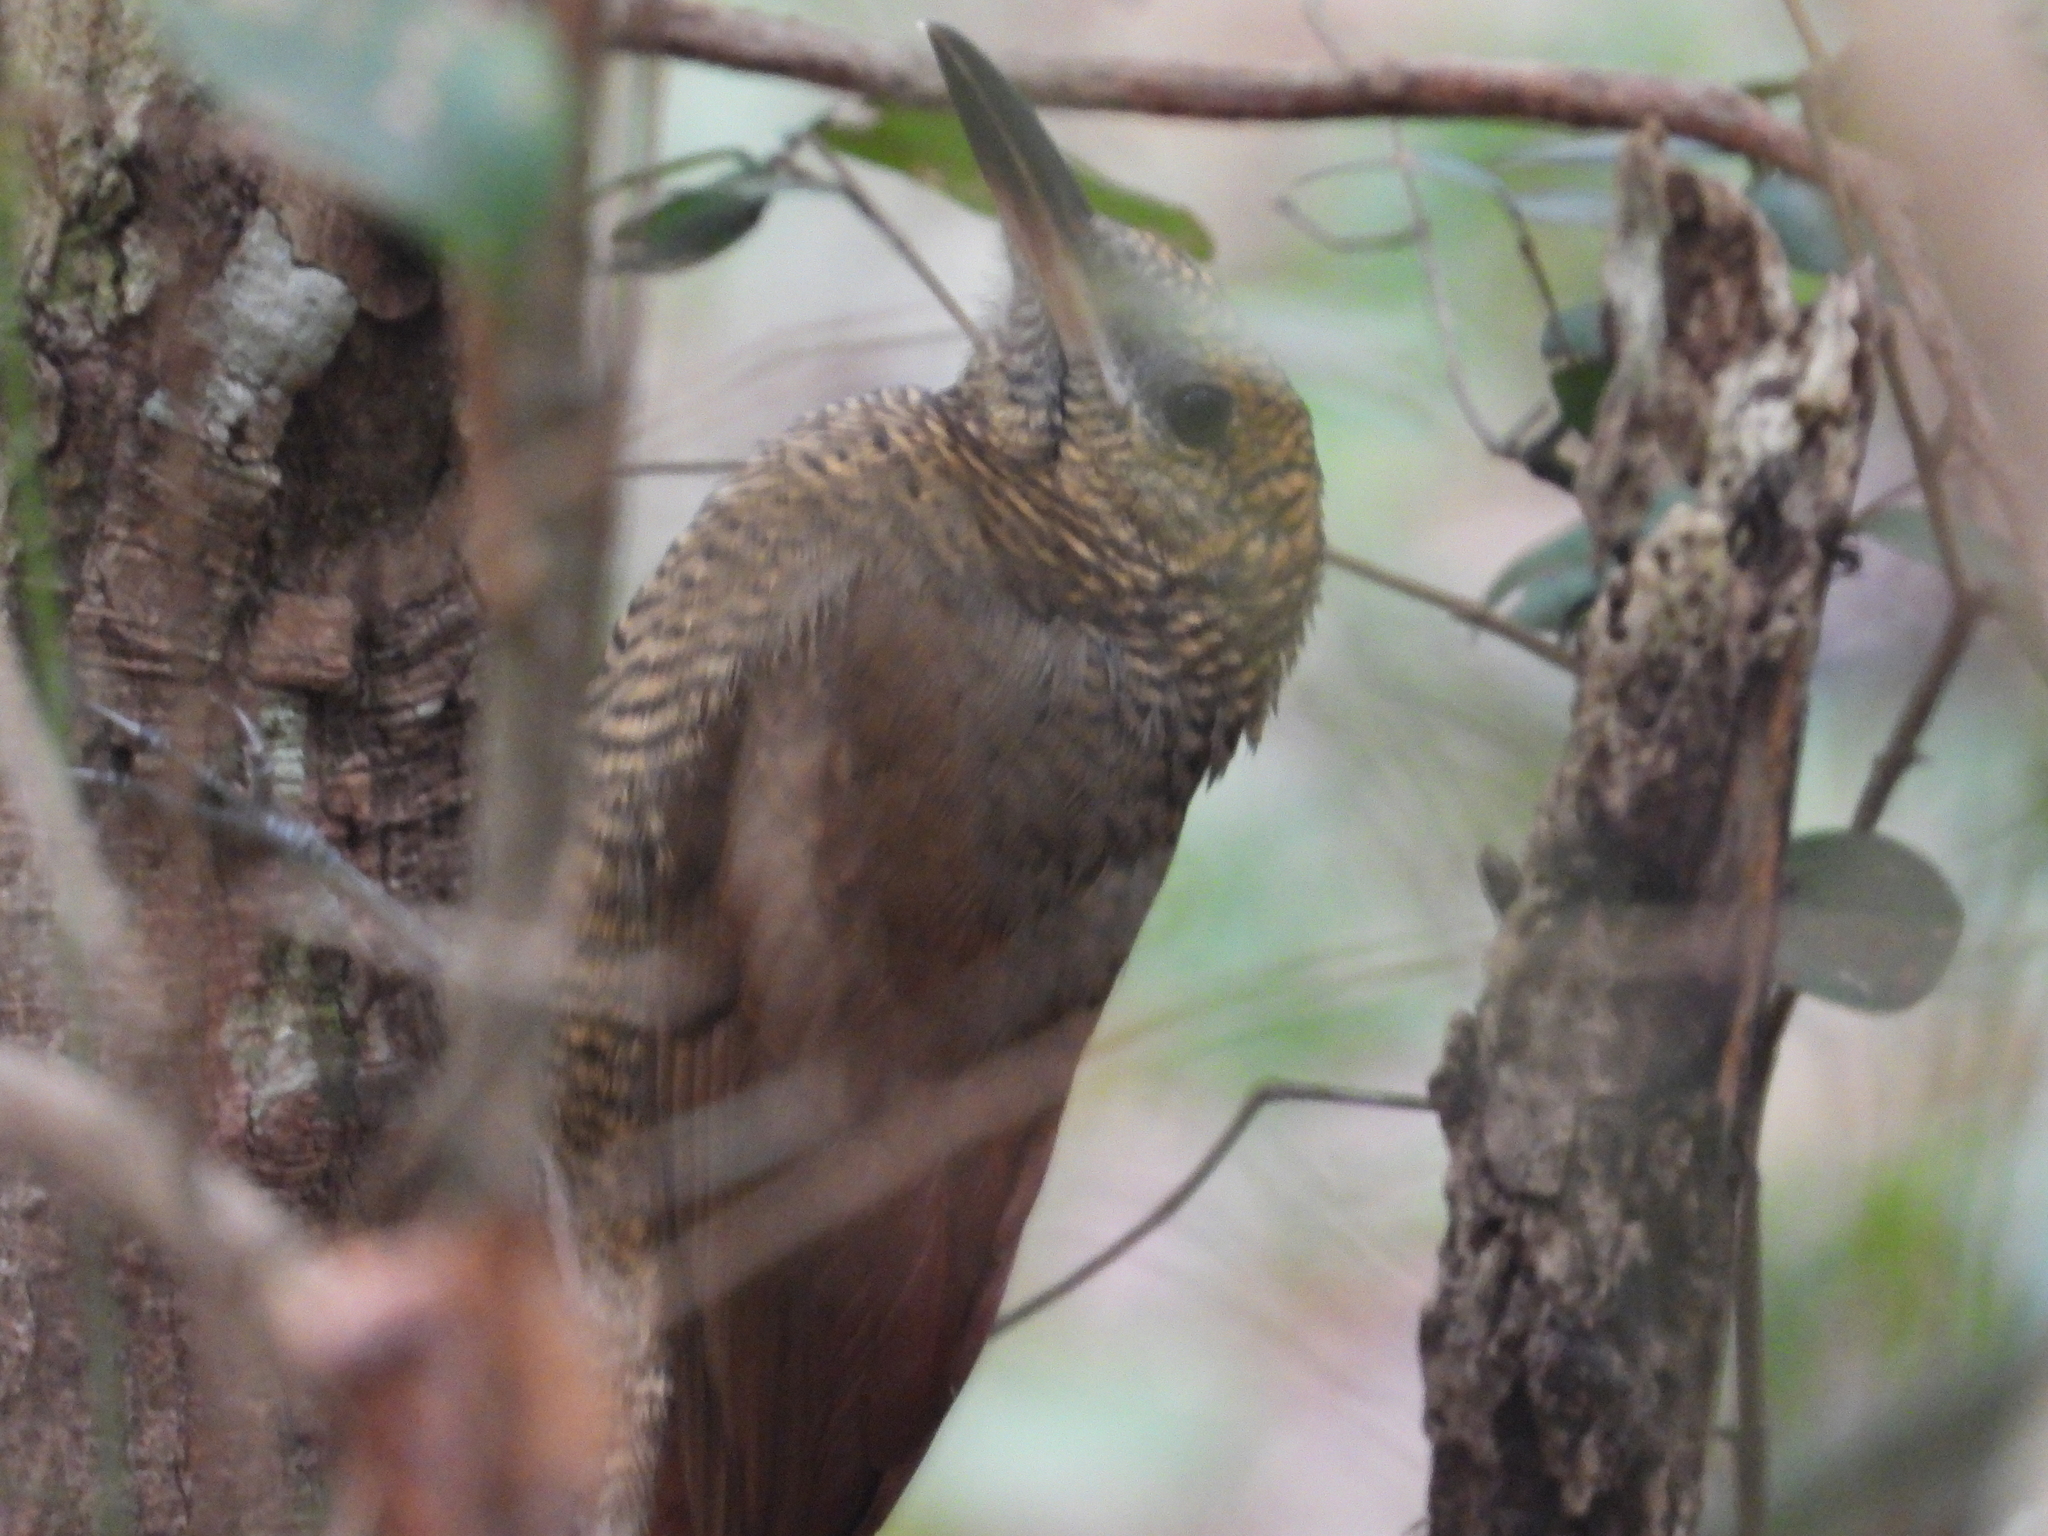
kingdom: Animalia
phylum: Chordata
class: Aves
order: Passeriformes
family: Furnariidae
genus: Dendrocolaptes
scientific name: Dendrocolaptes sanctithomae
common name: Northern barred-woodcreeper
